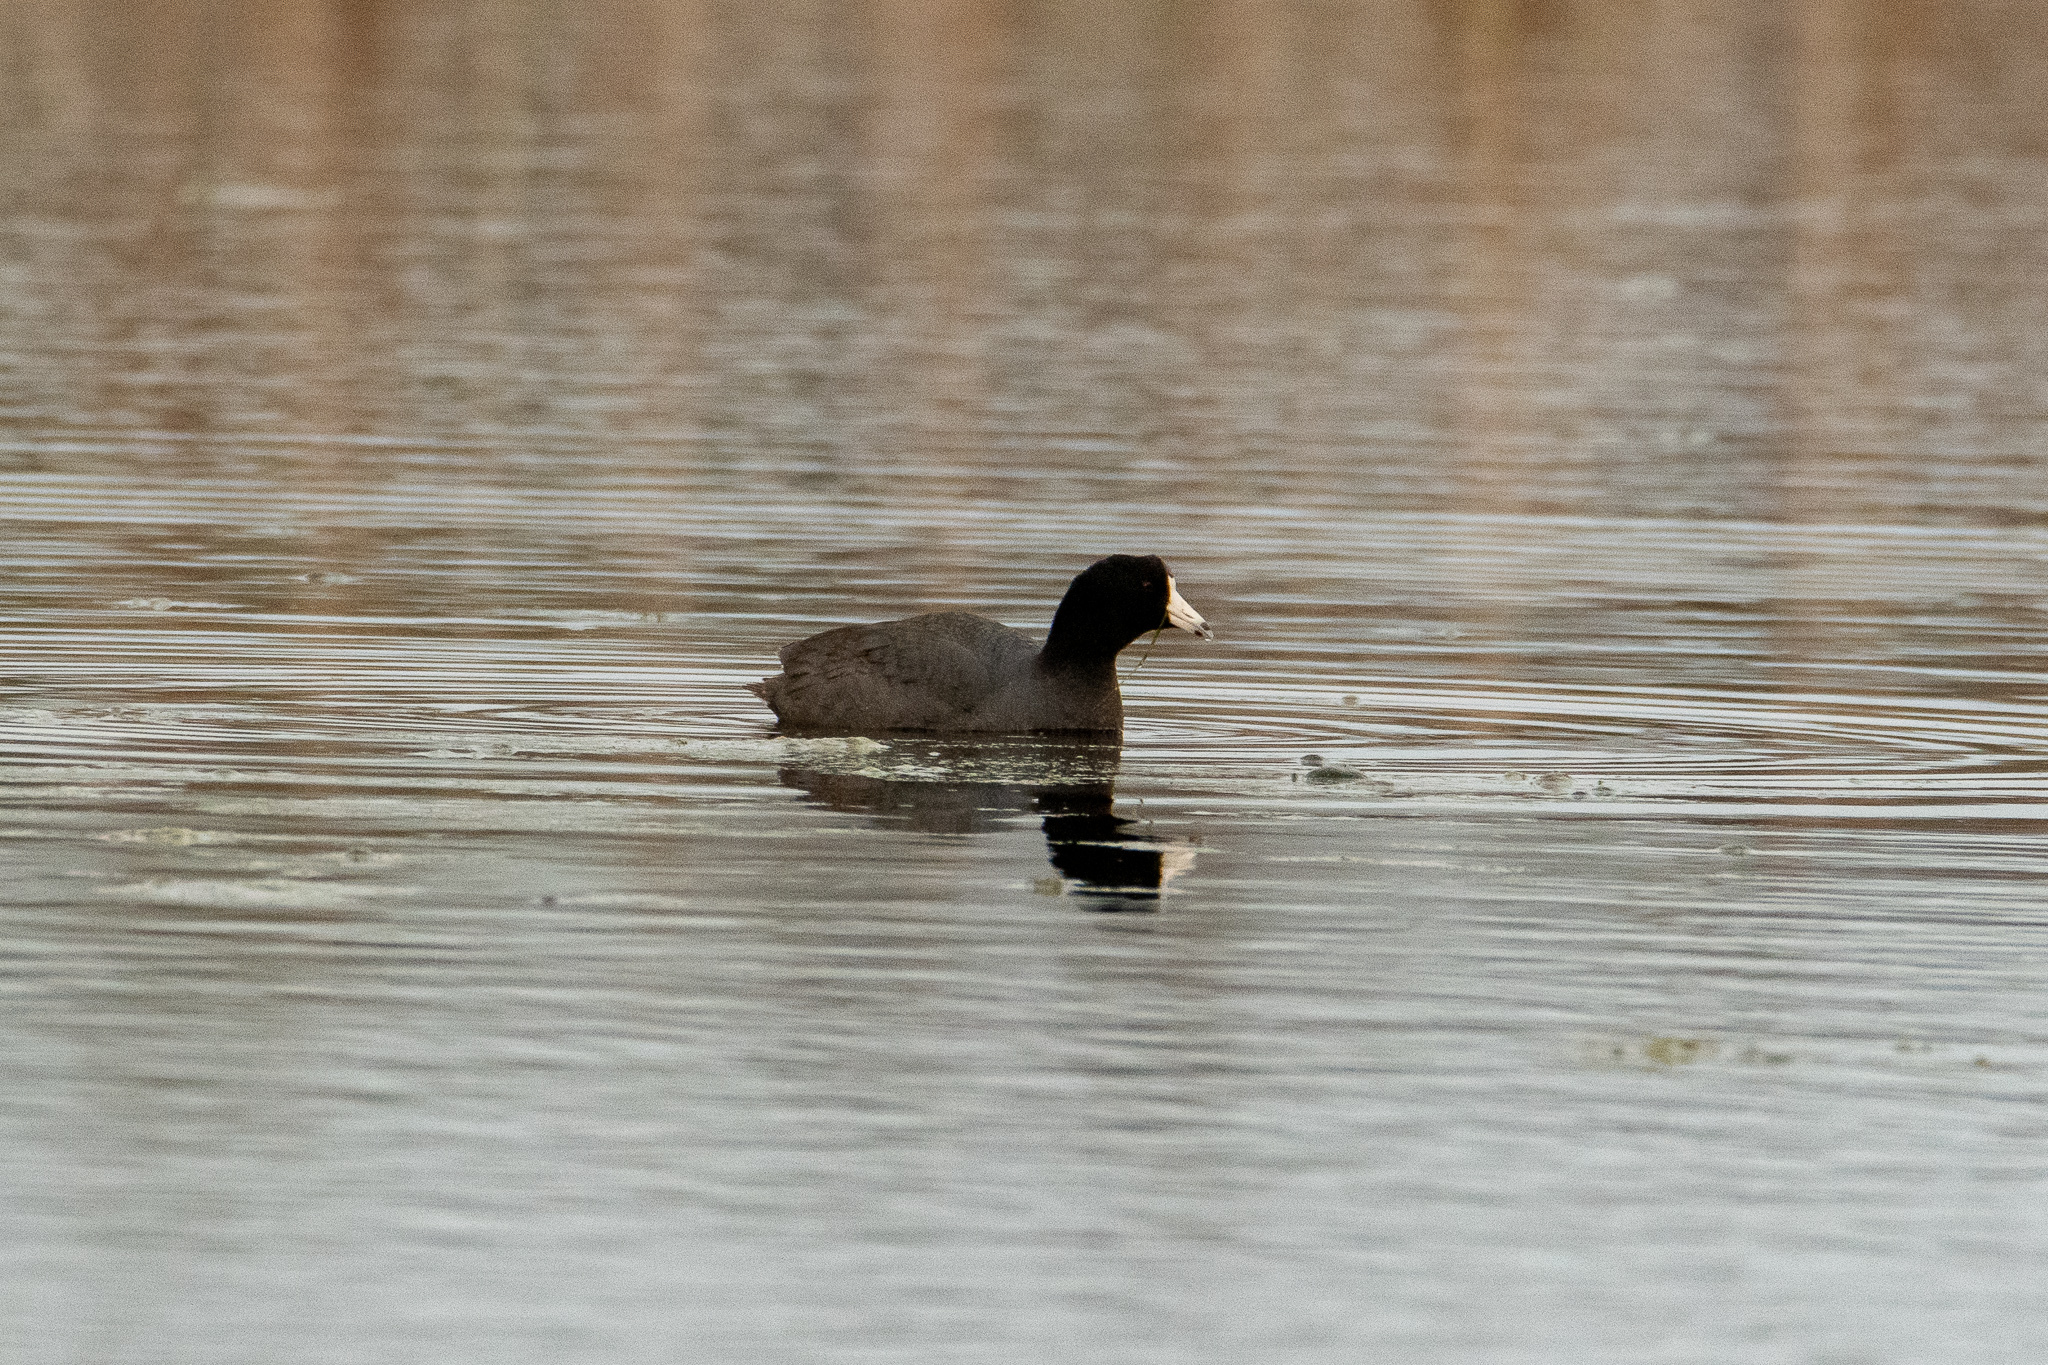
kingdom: Animalia
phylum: Chordata
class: Aves
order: Gruiformes
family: Rallidae
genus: Fulica
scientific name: Fulica americana
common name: American coot
